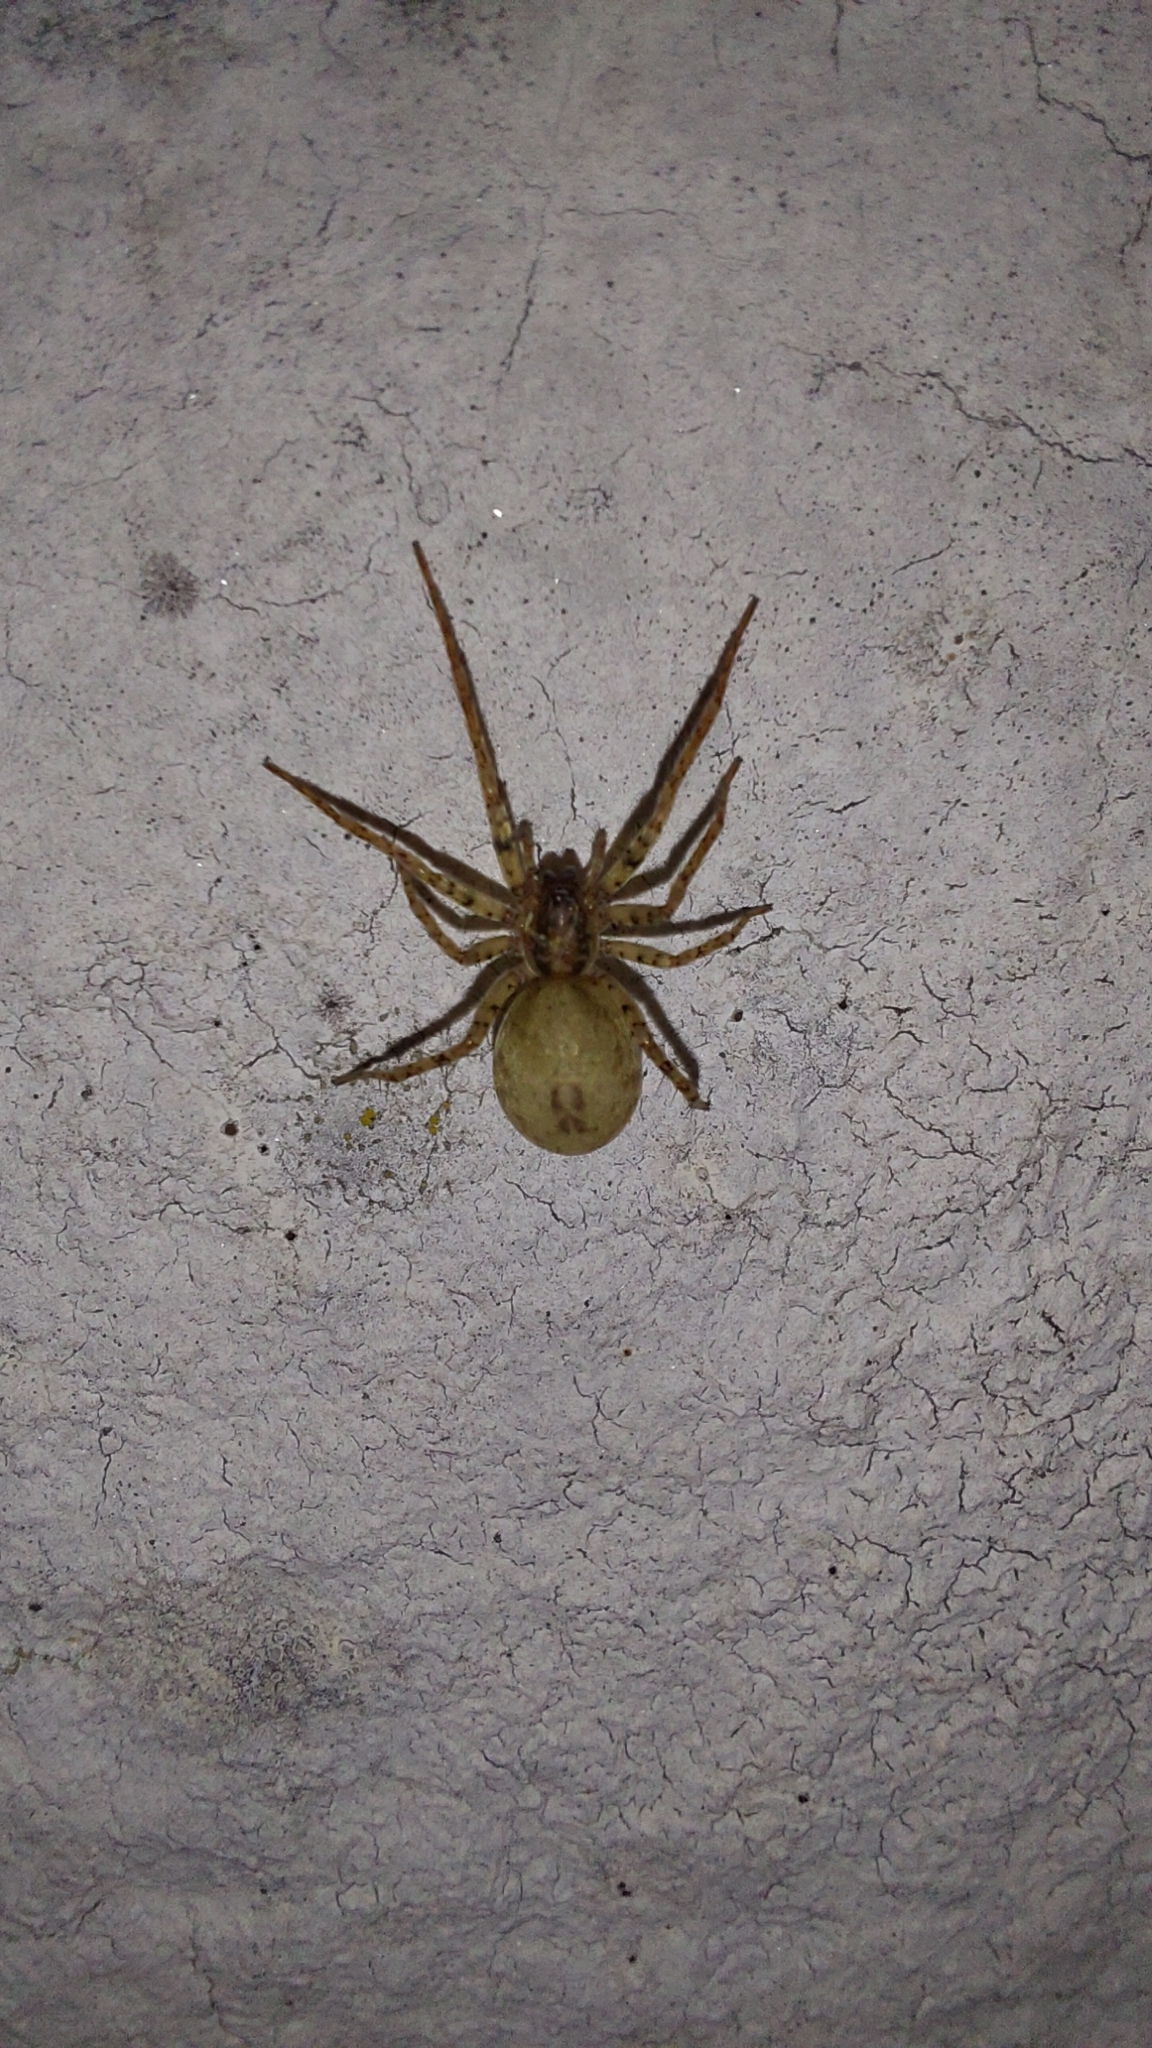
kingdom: Animalia
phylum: Arthropoda
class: Arachnida
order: Araneae
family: Anyphaenidae
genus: Anyphaena
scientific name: Anyphaena accentuata
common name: Buzzing spider
